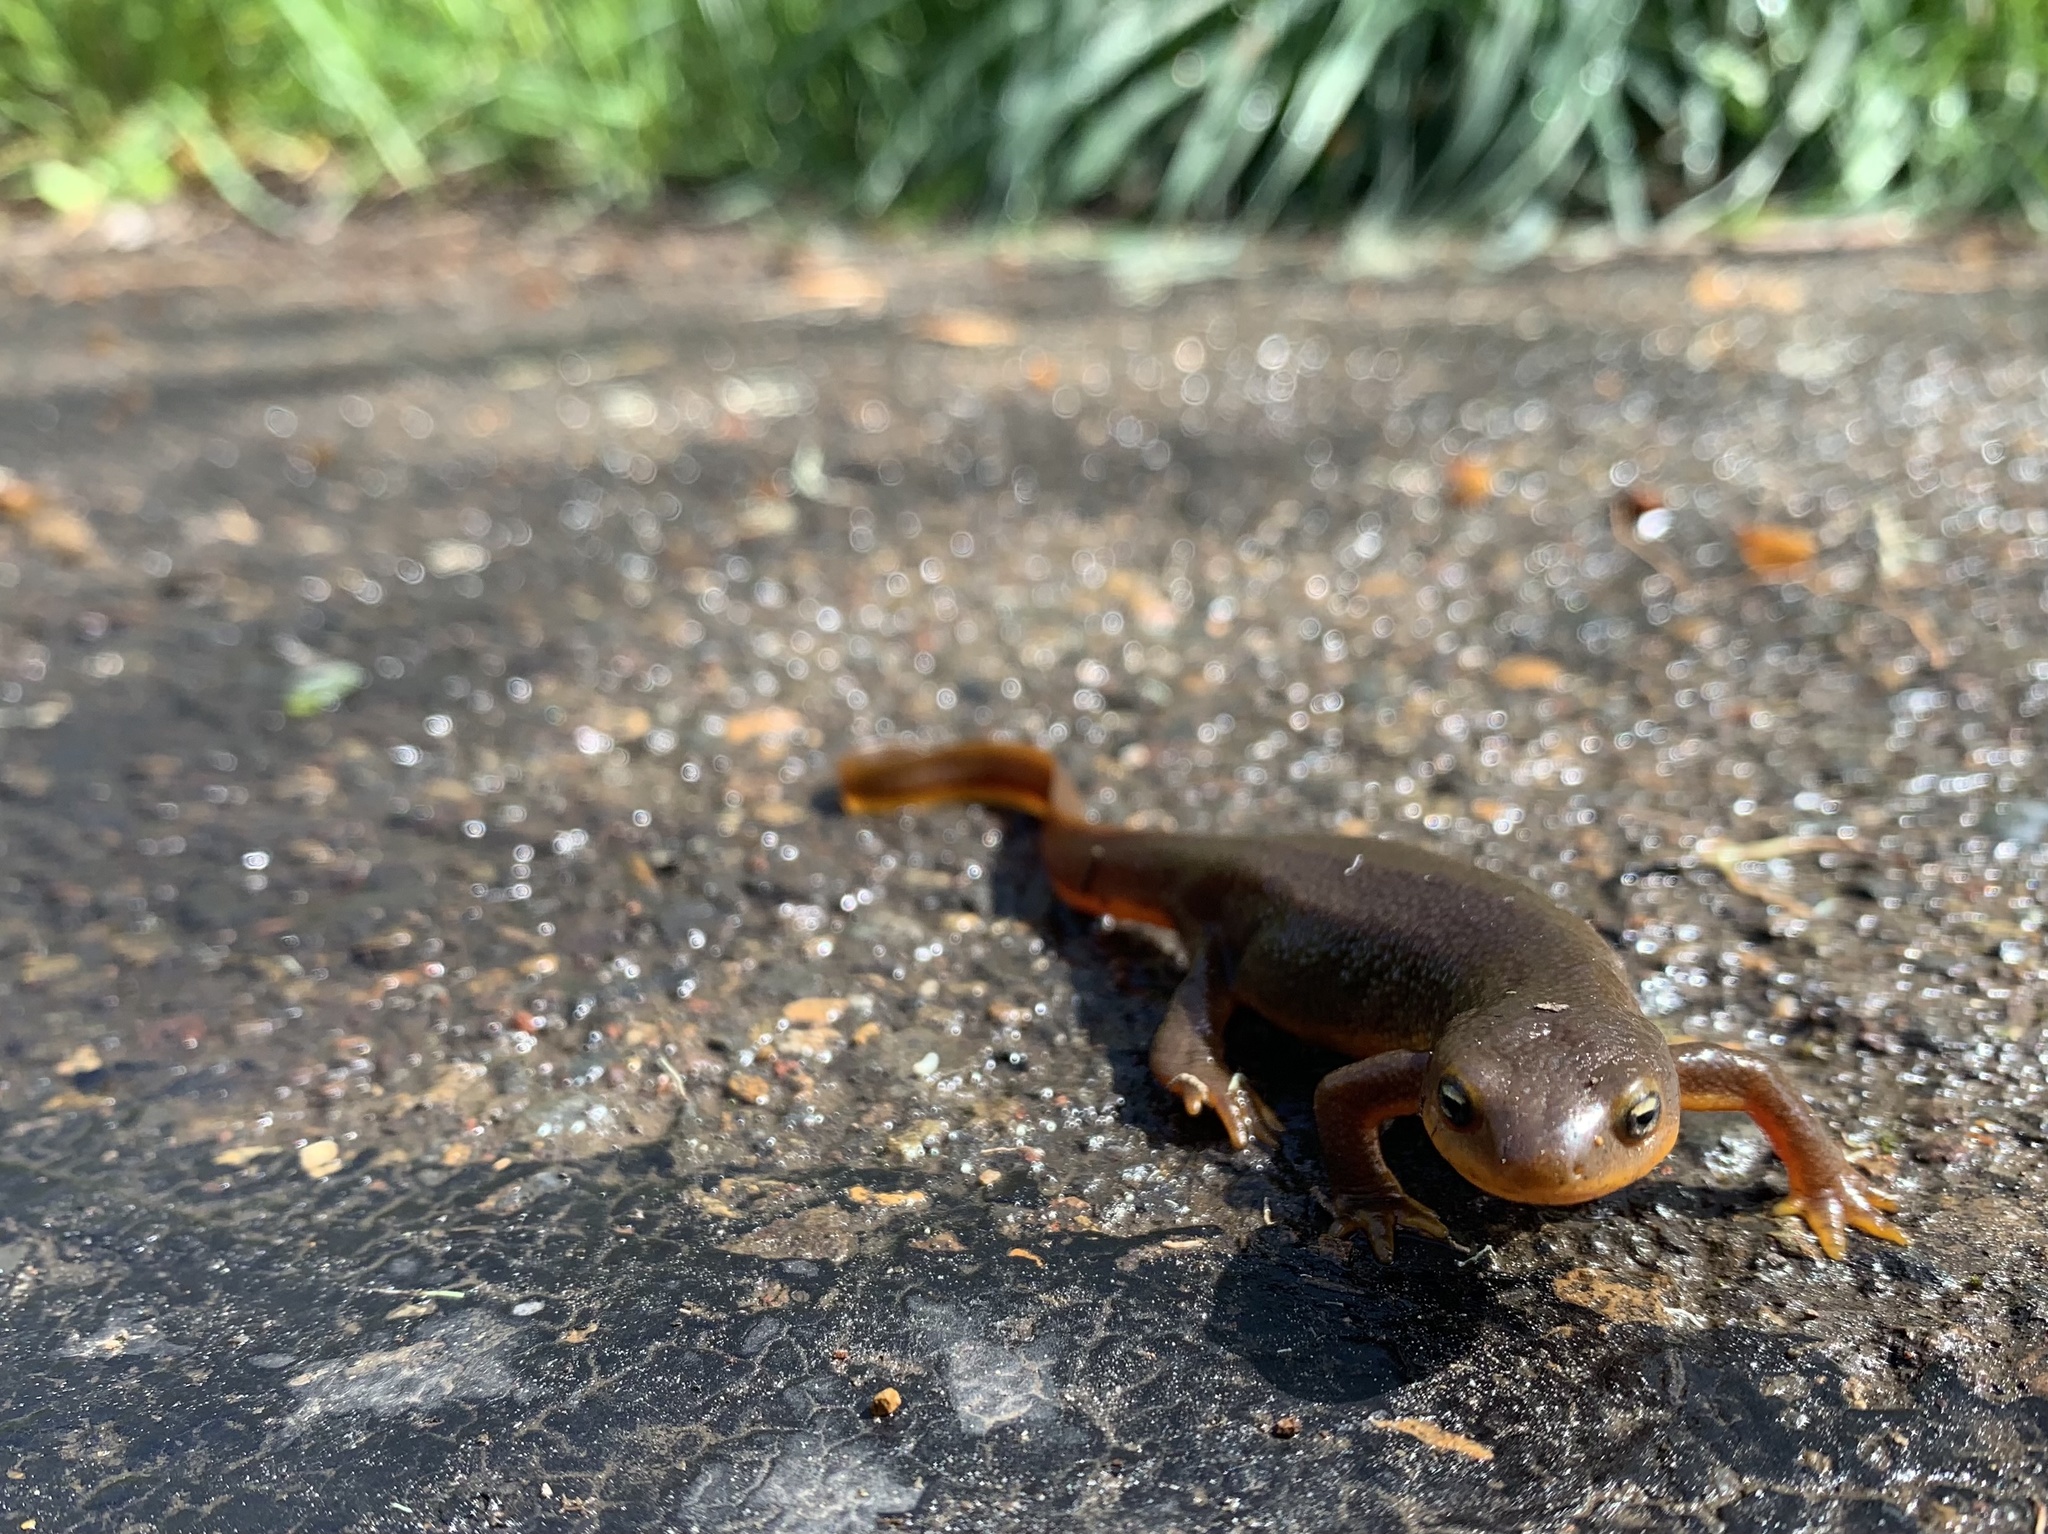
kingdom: Animalia
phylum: Chordata
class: Amphibia
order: Caudata
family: Salamandridae
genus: Taricha
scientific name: Taricha granulosa
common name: Roughskin newt
